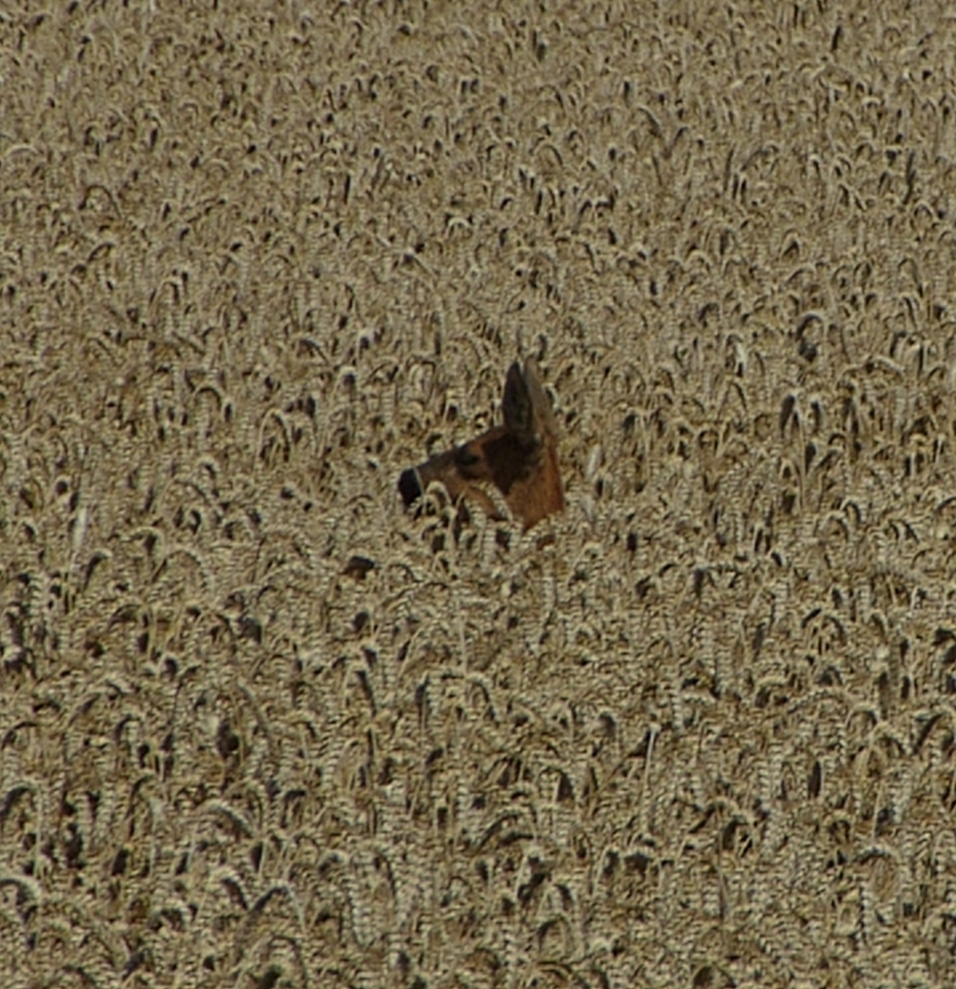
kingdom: Animalia
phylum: Chordata
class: Mammalia
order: Artiodactyla
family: Cervidae
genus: Capreolus
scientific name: Capreolus capreolus
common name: Western roe deer
